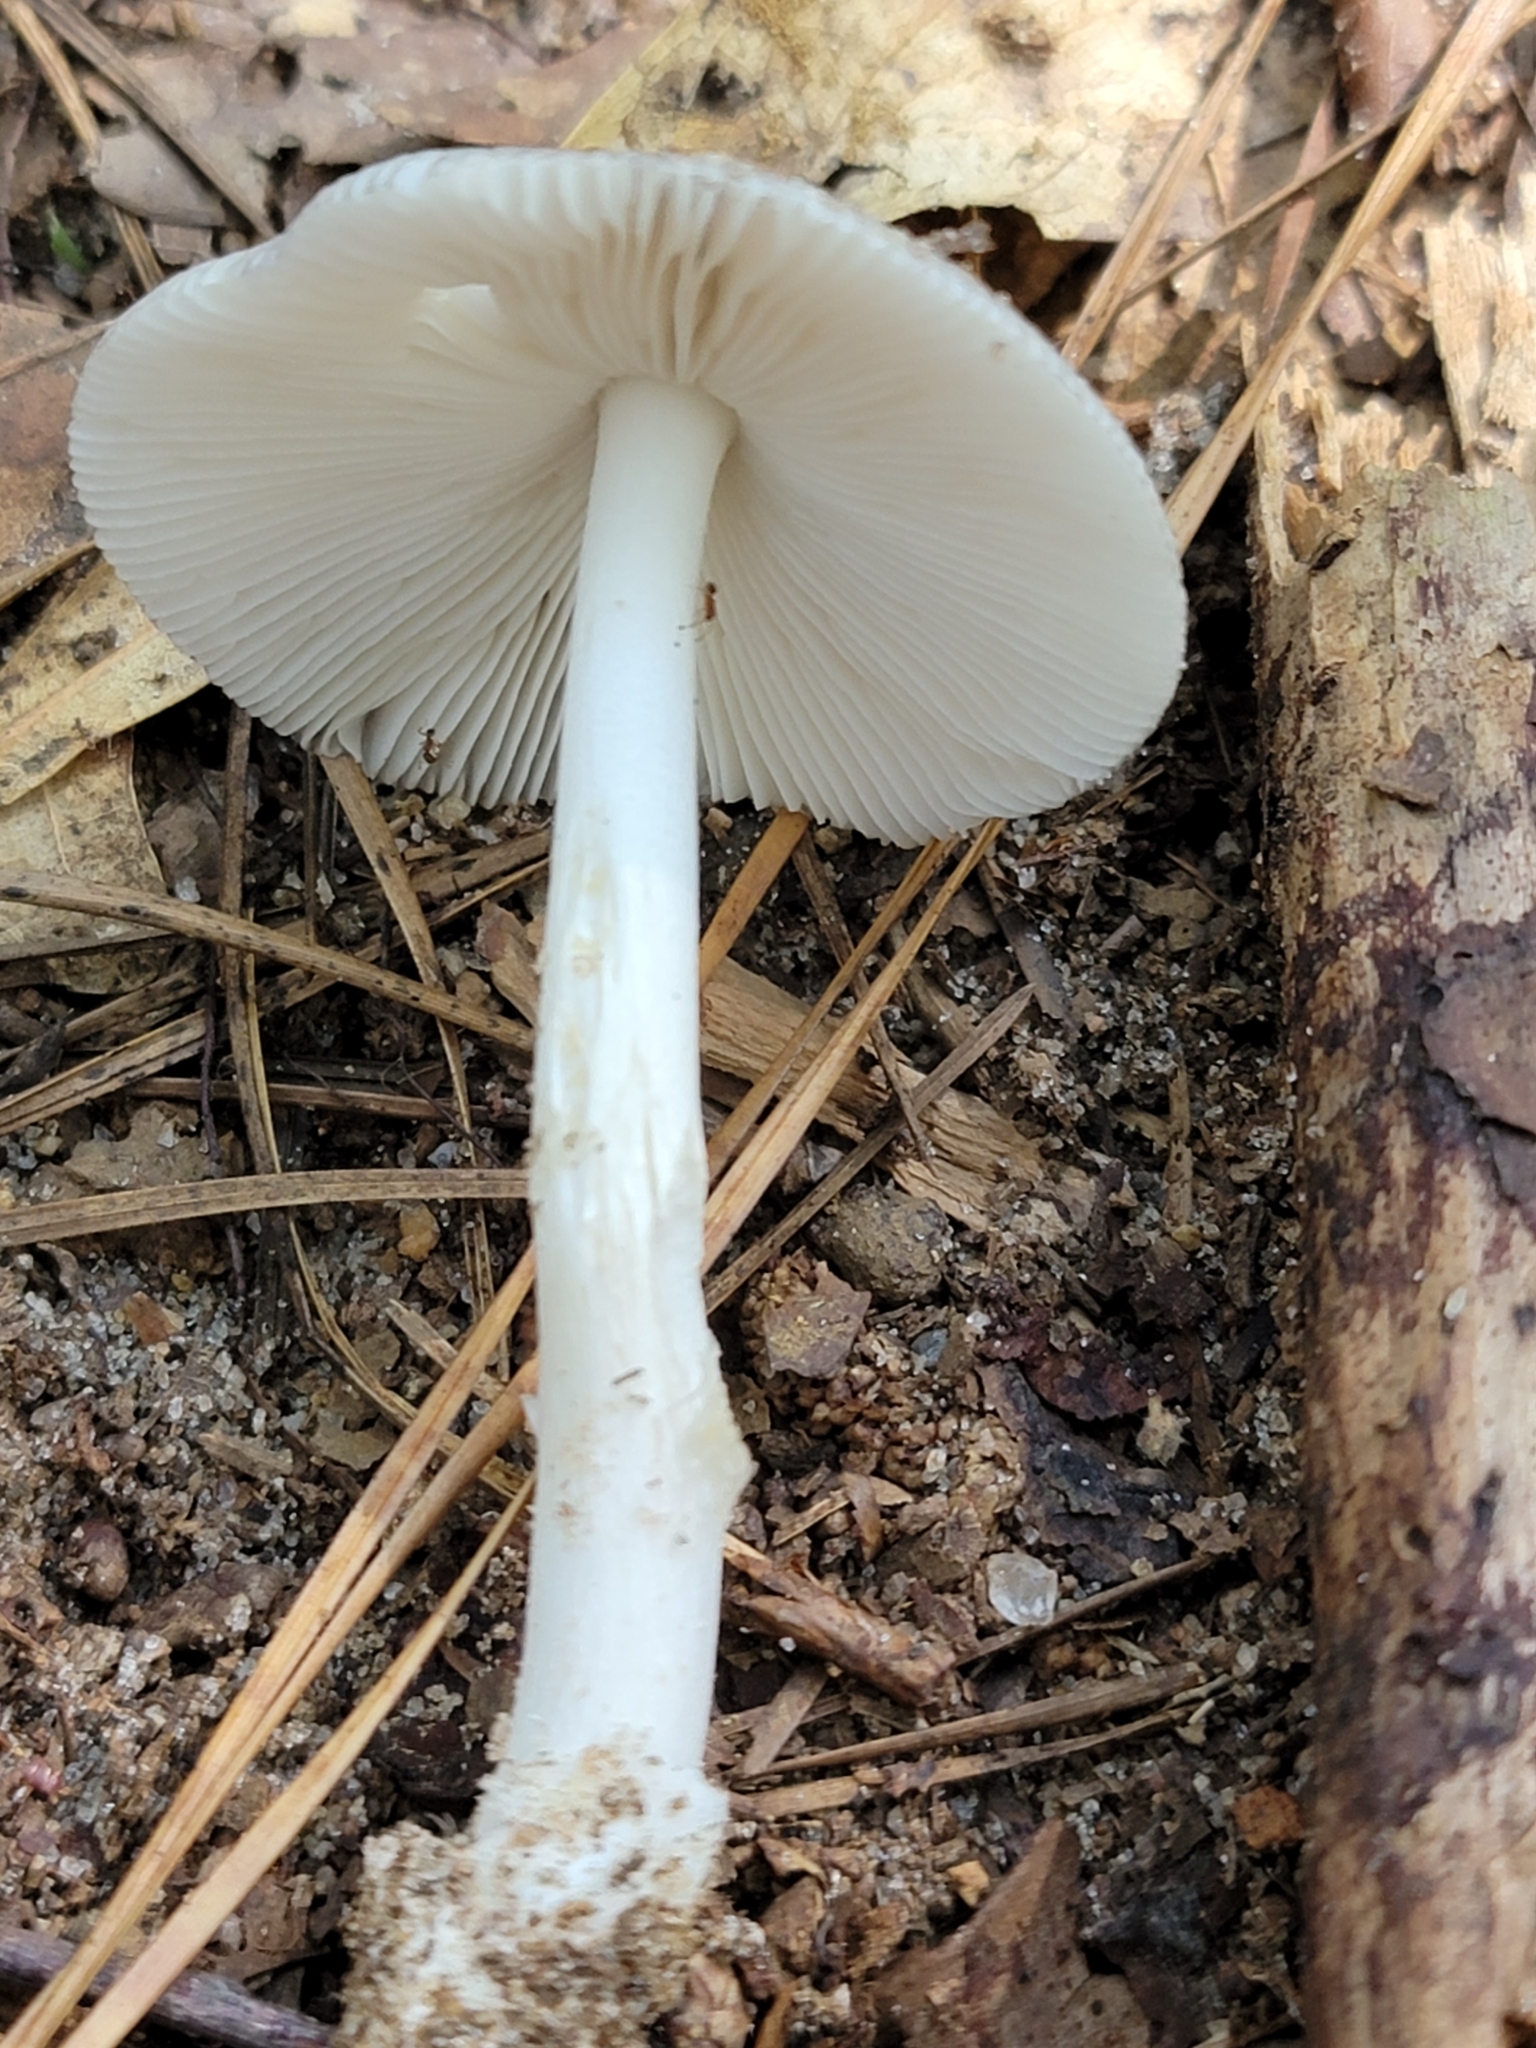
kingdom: Fungi
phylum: Basidiomycota
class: Agaricomycetes
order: Agaricales
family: Amanitaceae
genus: Amanita
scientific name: Amanita vaginata
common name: Grisette
